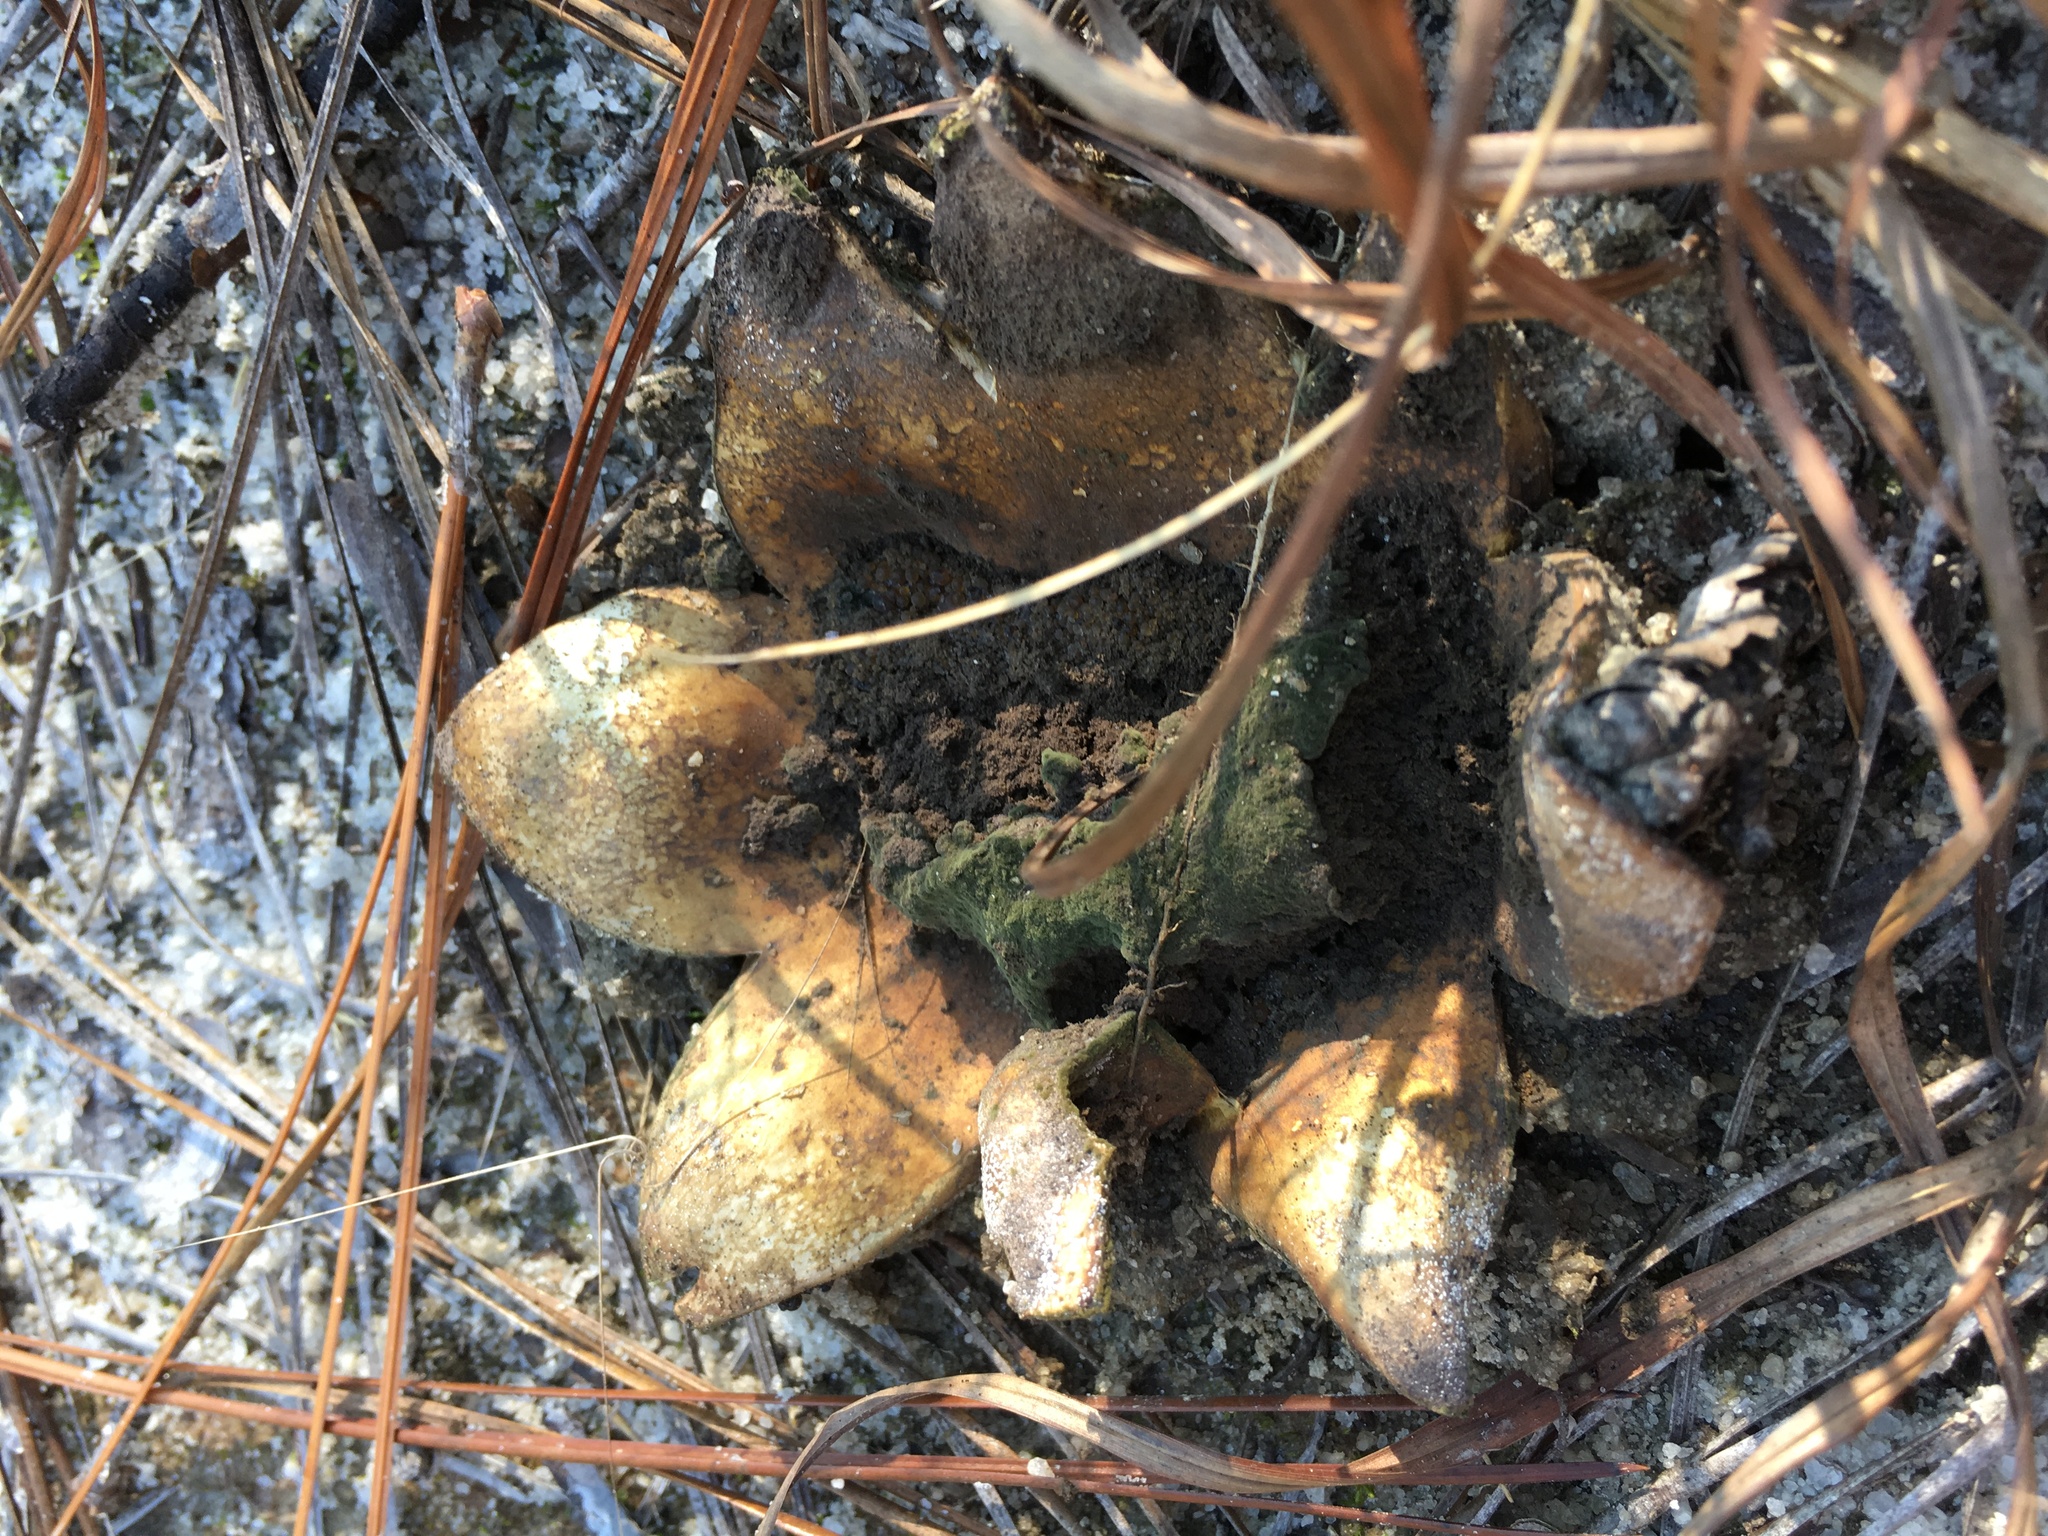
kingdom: Fungi
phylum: Basidiomycota
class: Agaricomycetes
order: Boletales
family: Sclerodermataceae
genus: Scleroderma
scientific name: Scleroderma polyrhizum
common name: Many-rooted earthball
